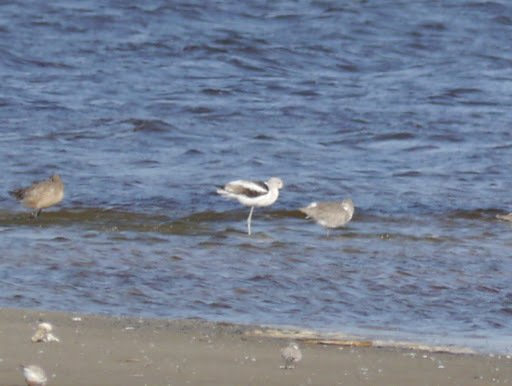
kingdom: Animalia
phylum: Chordata
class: Aves
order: Charadriiformes
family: Recurvirostridae
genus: Recurvirostra
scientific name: Recurvirostra americana
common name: American avocet
